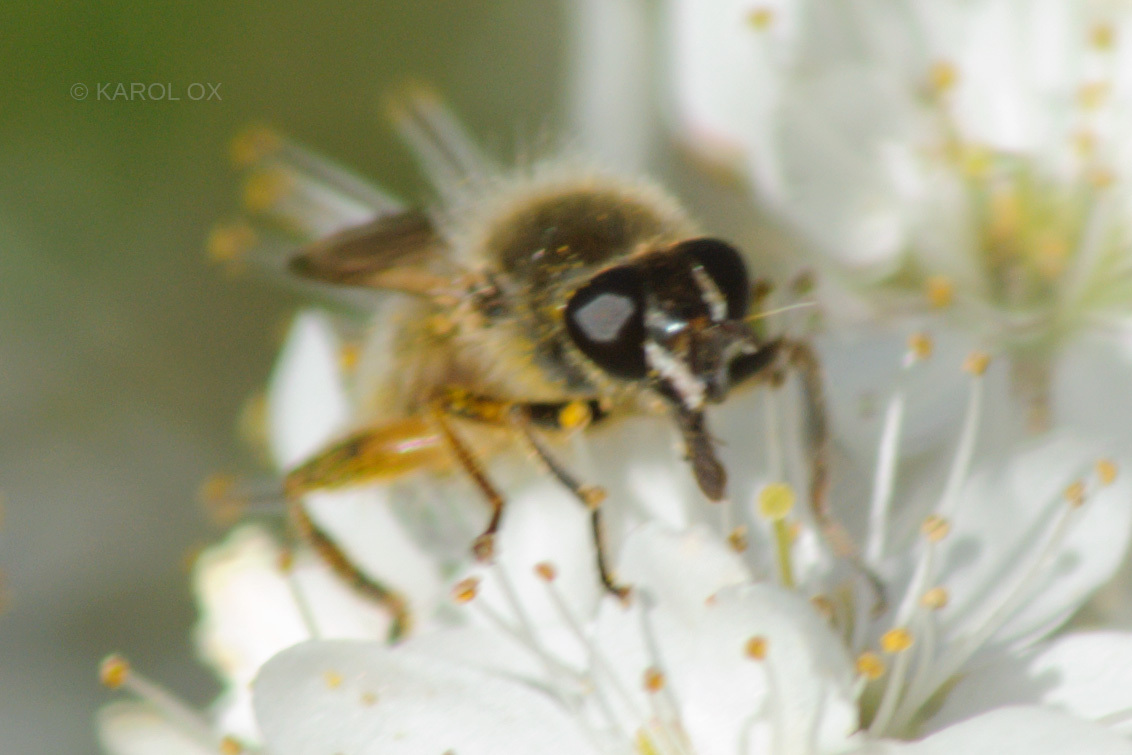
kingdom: Animalia
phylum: Arthropoda
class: Insecta
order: Diptera
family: Syrphidae
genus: Brachypalpus
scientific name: Brachypalpus valgus
